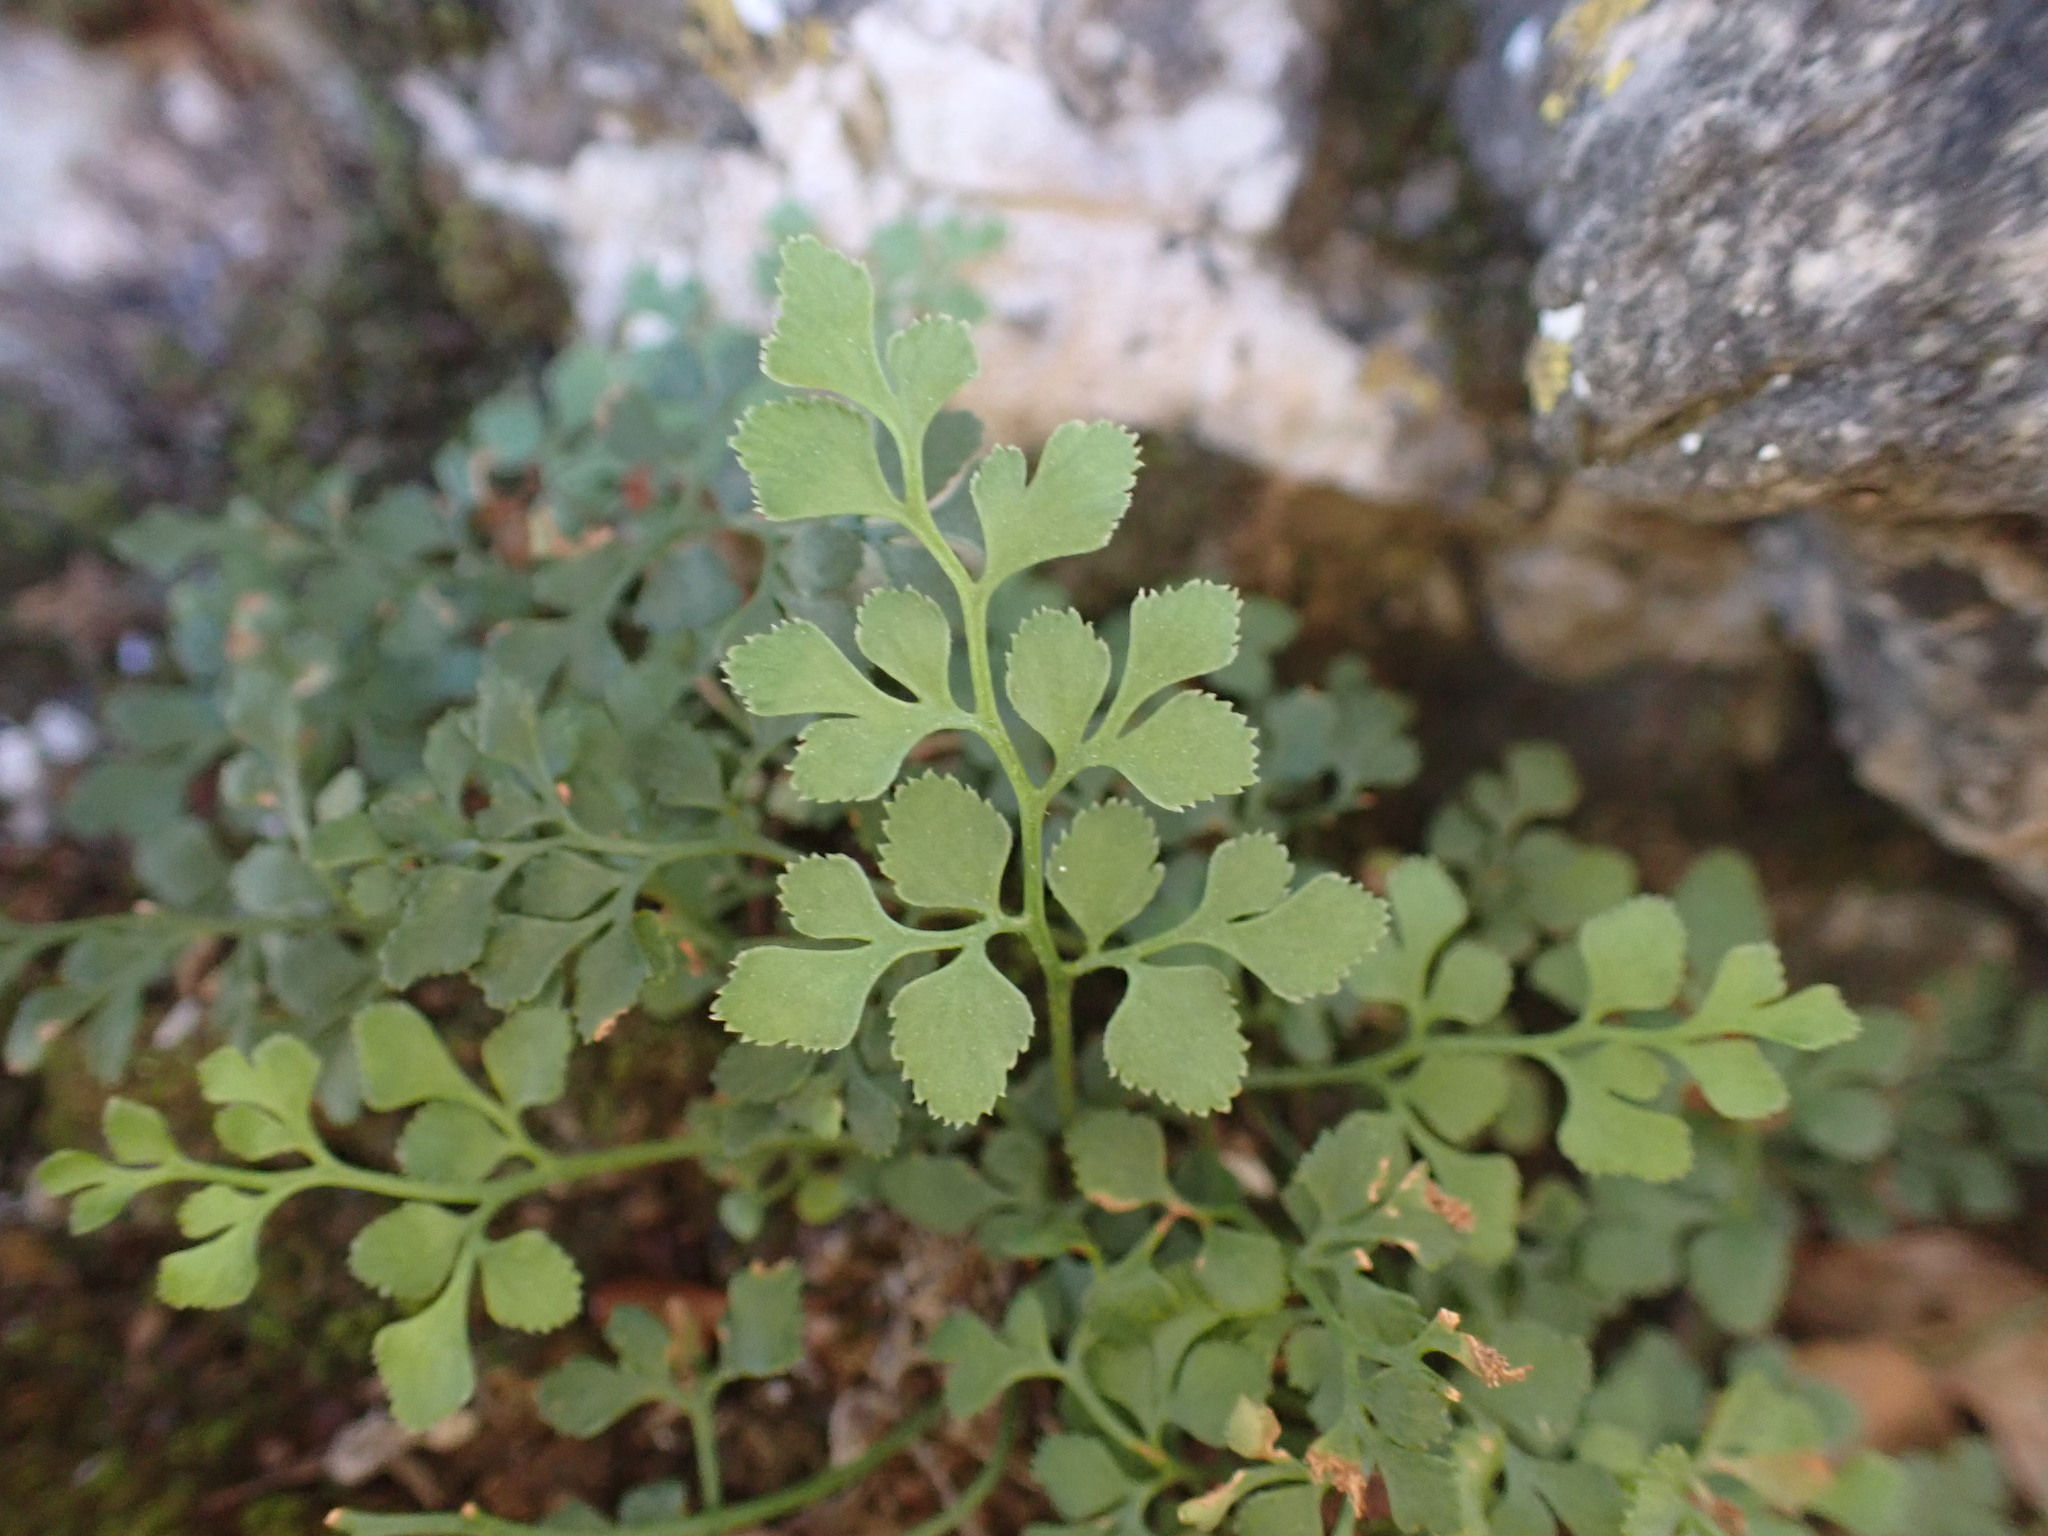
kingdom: Plantae
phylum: Tracheophyta
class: Polypodiopsida
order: Polypodiales
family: Aspleniaceae
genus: Asplenium
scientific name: Asplenium ruta-muraria
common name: Wall-rue
